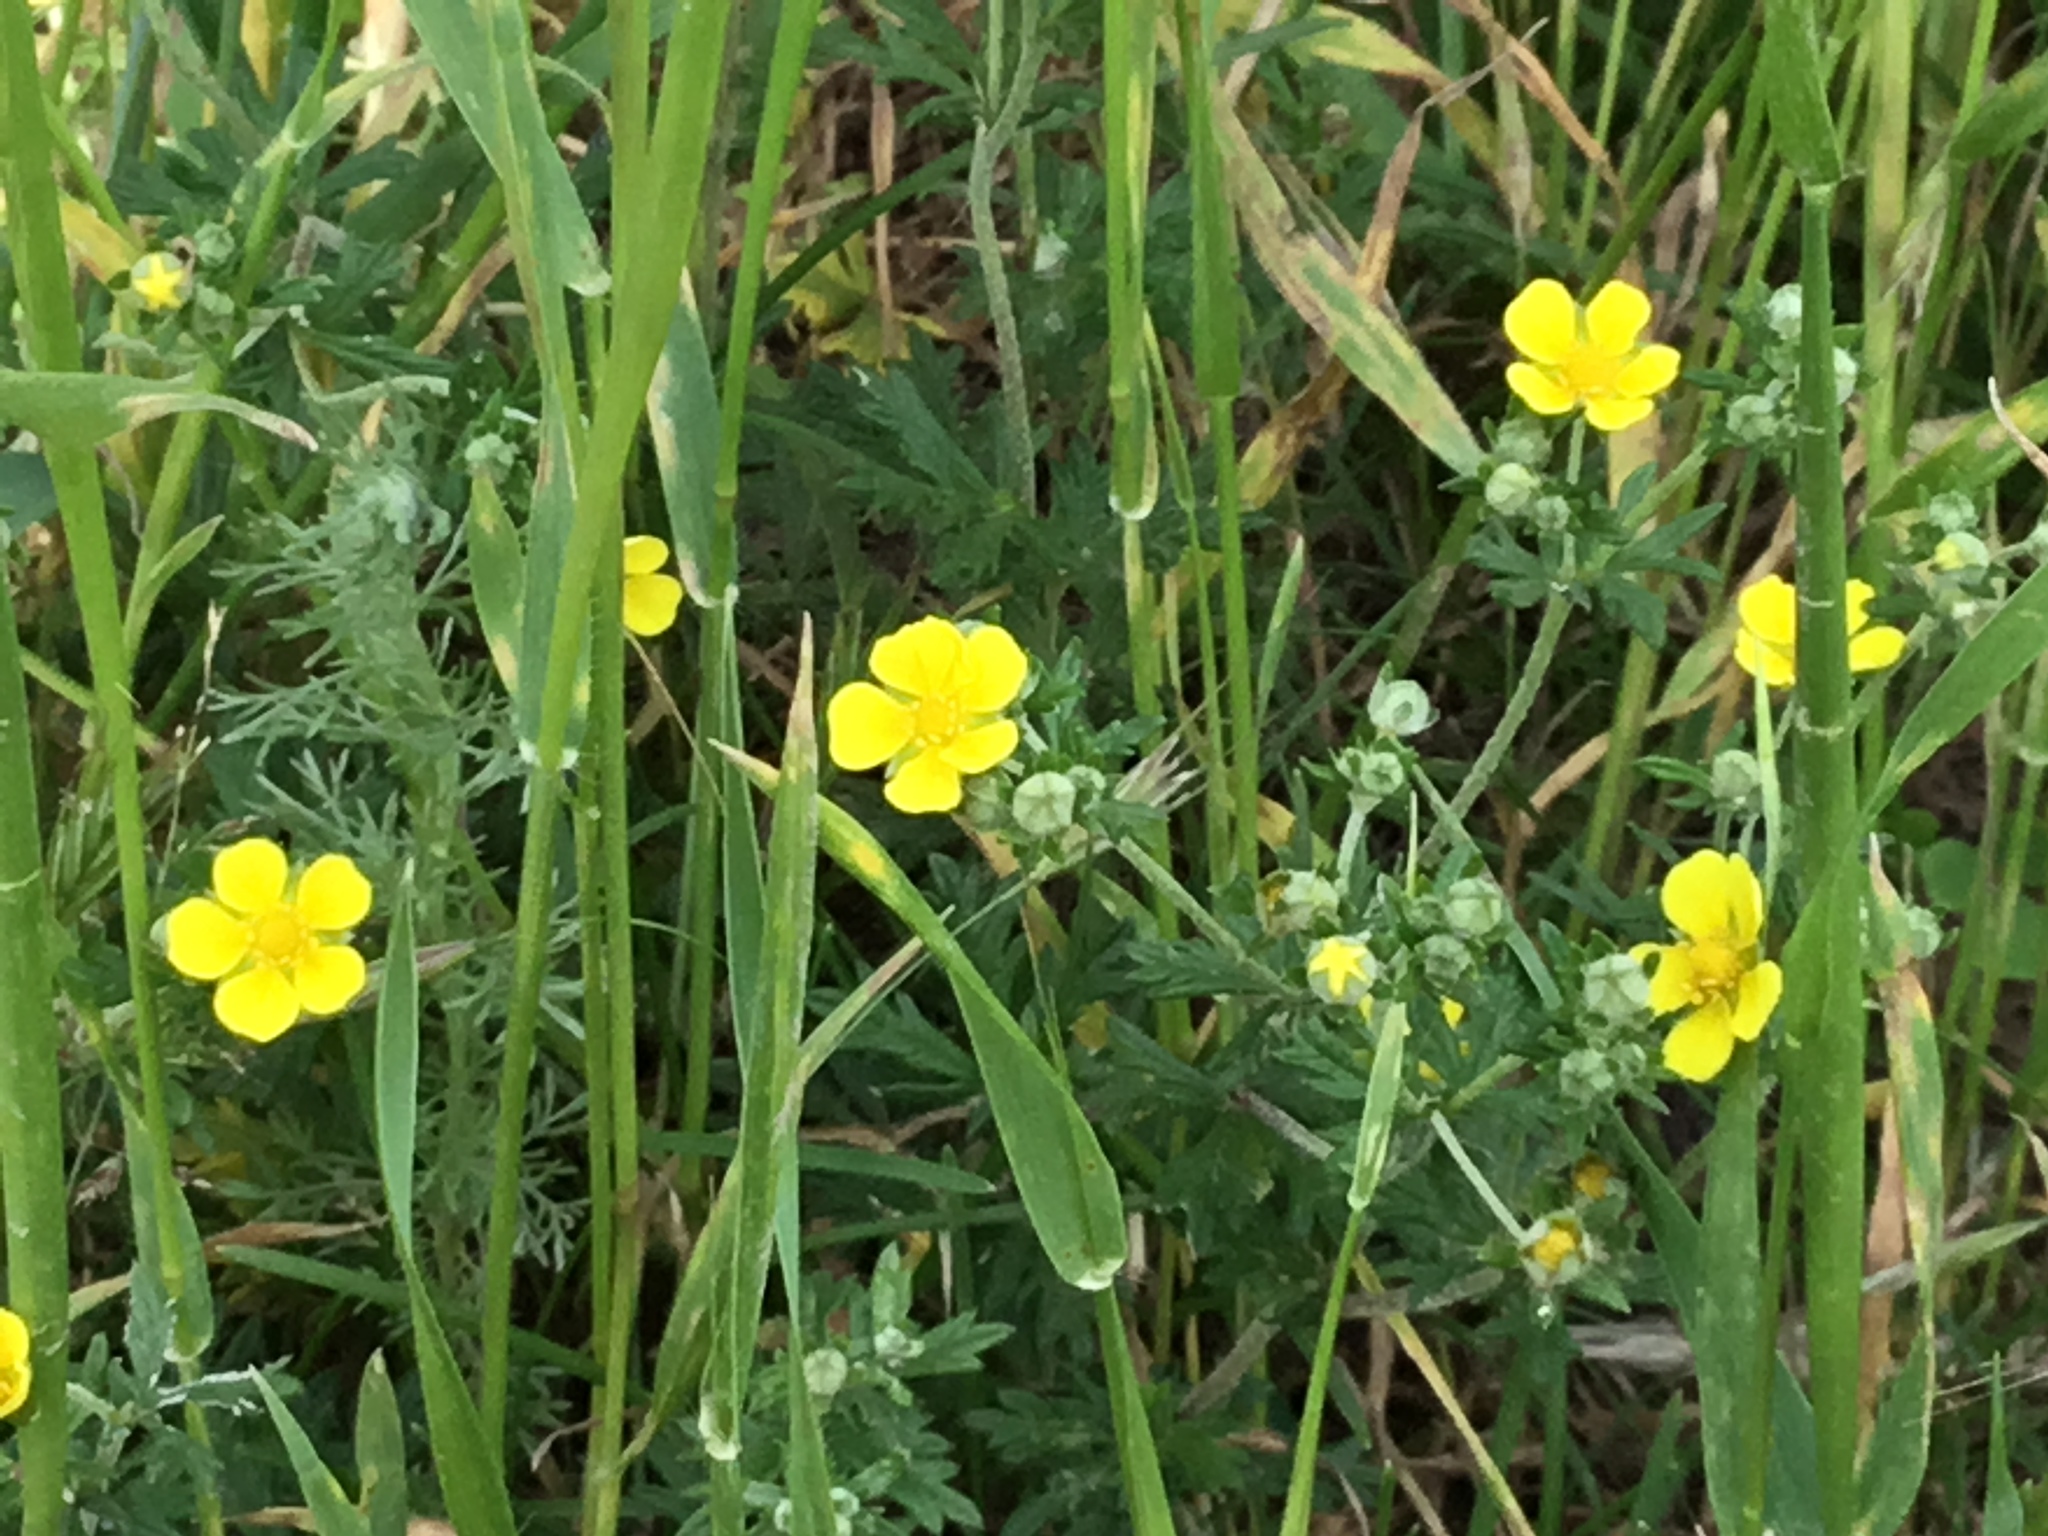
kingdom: Plantae
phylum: Tracheophyta
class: Magnoliopsida
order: Rosales
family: Rosaceae
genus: Potentilla
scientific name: Potentilla argentea
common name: Hoary cinquefoil
